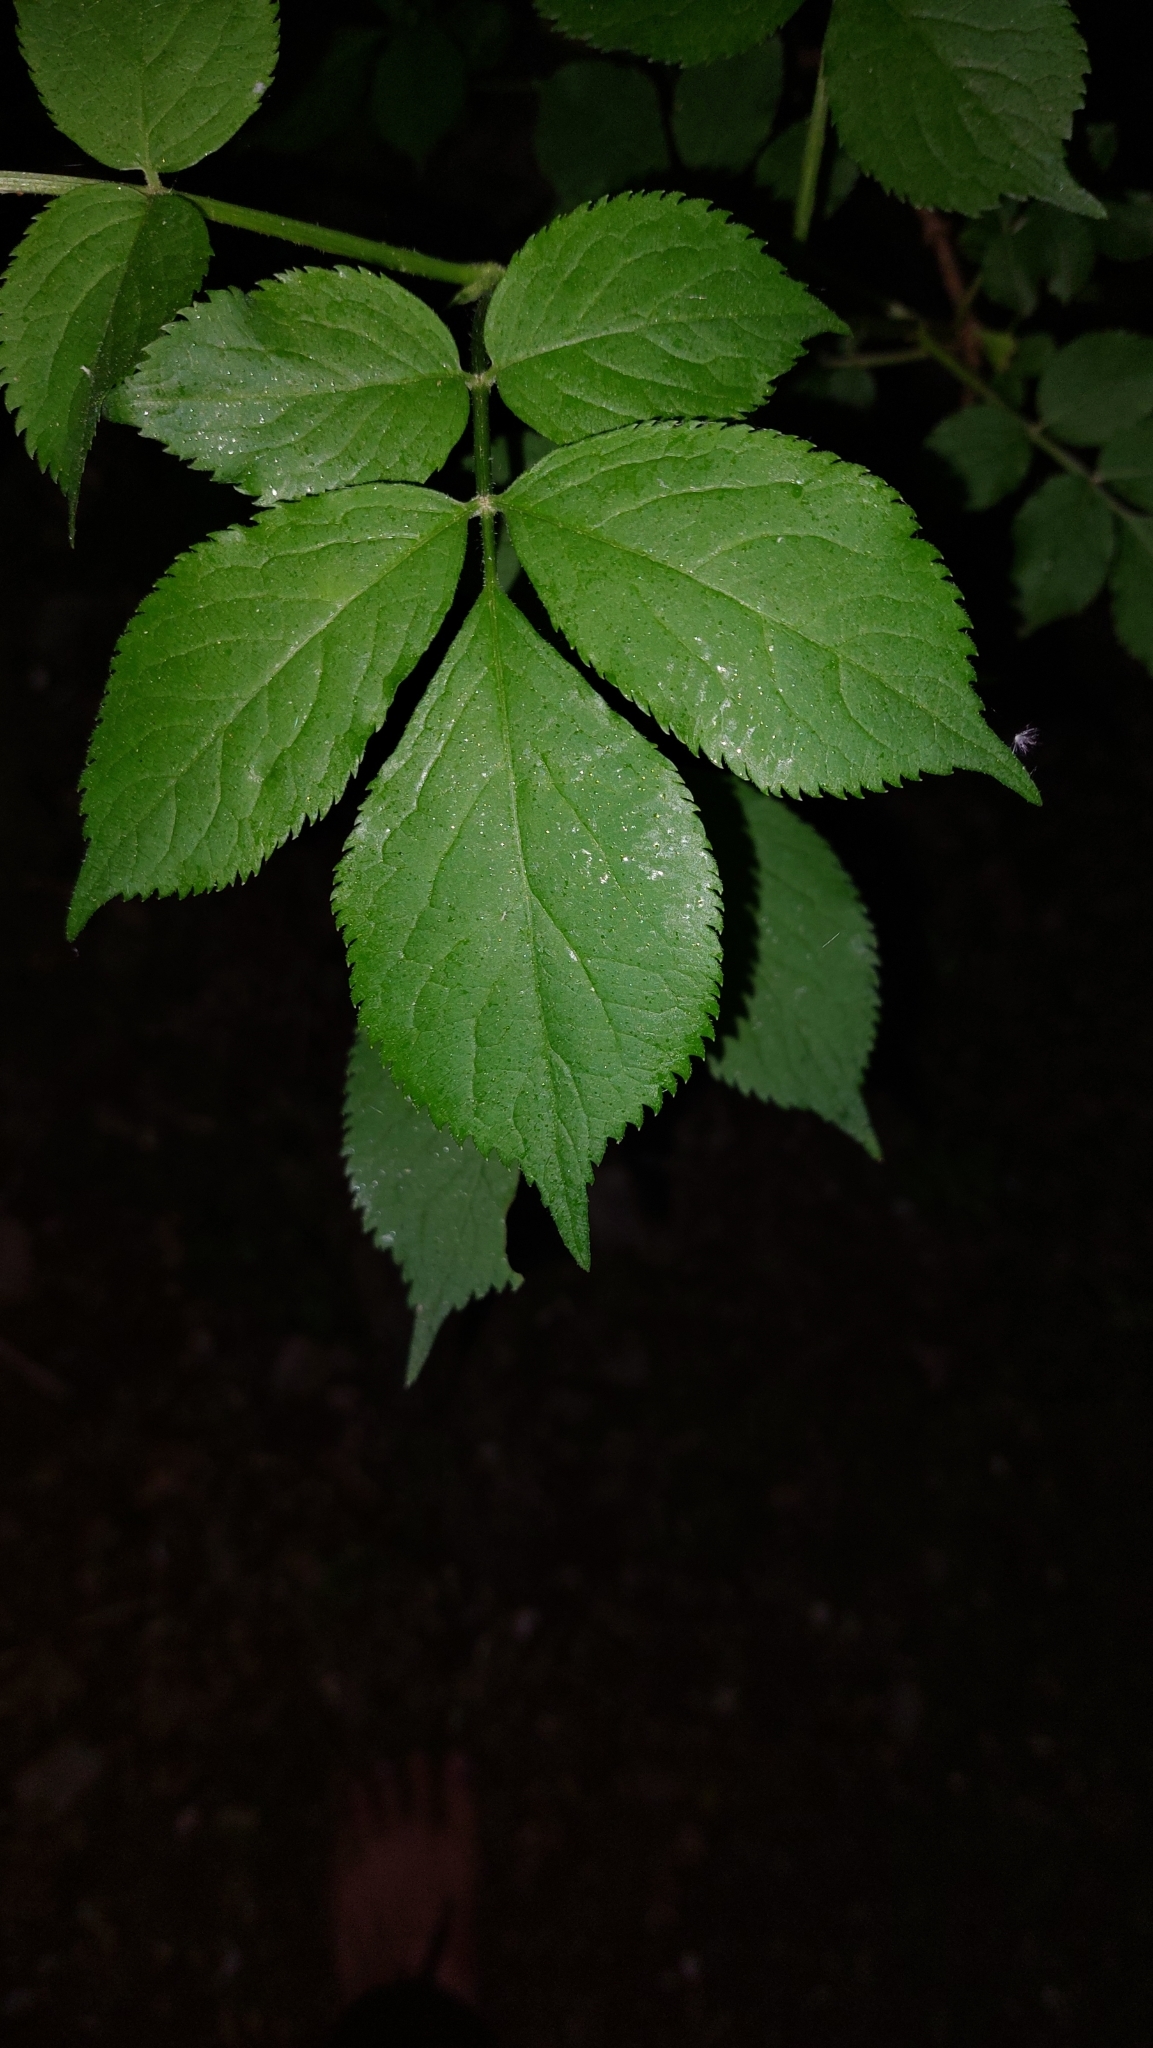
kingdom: Plantae
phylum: Tracheophyta
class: Magnoliopsida
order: Dipsacales
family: Viburnaceae
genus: Sambucus
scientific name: Sambucus nigra
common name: Elder
